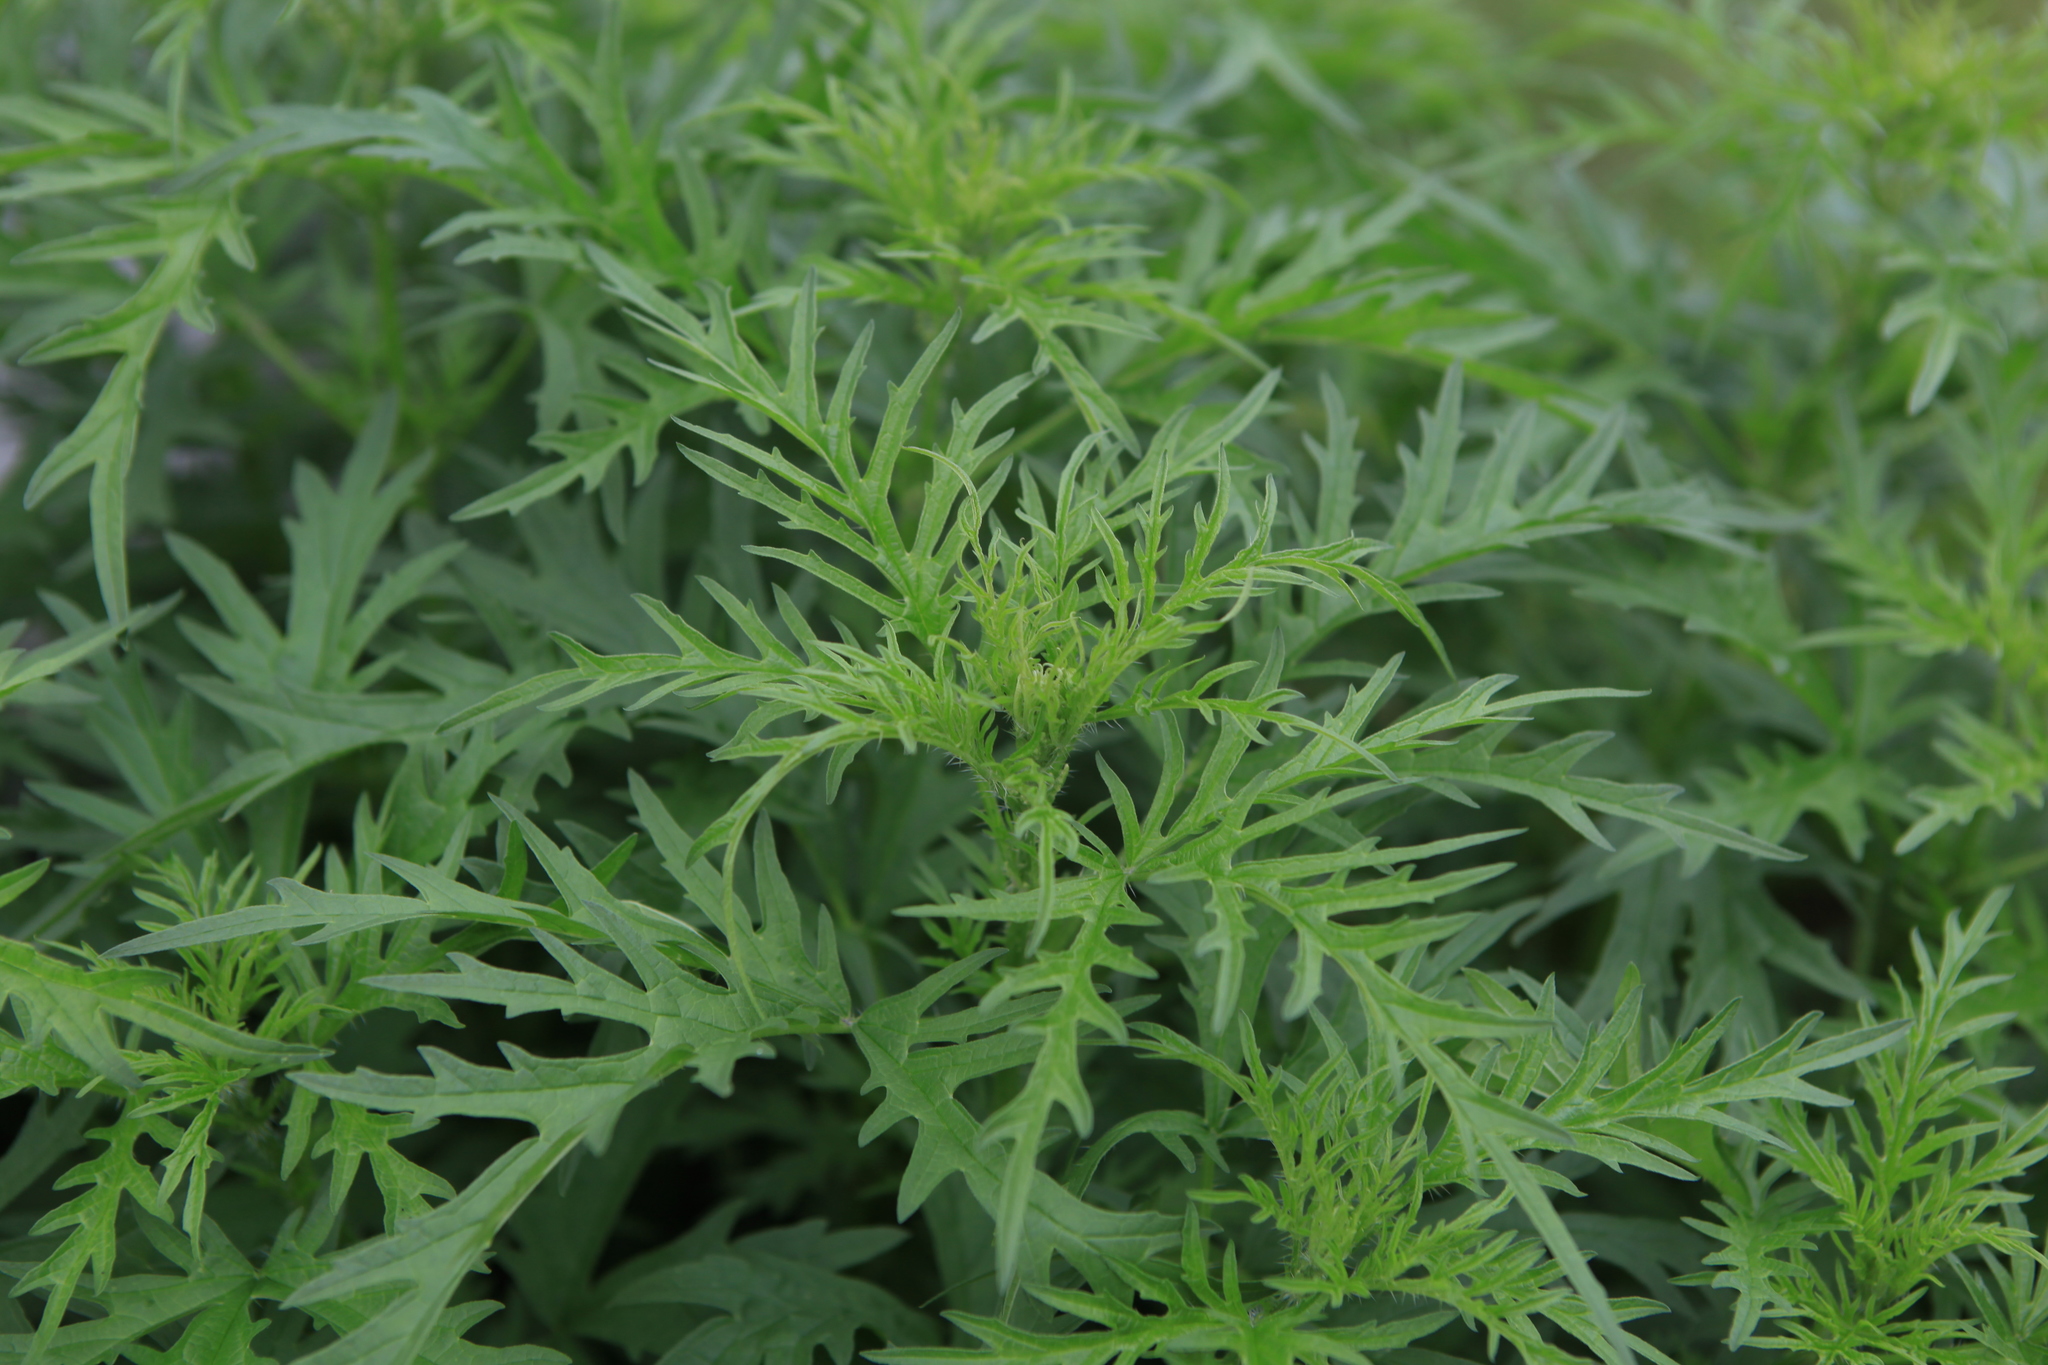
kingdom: Plantae
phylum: Tracheophyta
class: Magnoliopsida
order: Rosales
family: Urticaceae
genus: Urtica
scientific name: Urtica cannabina
